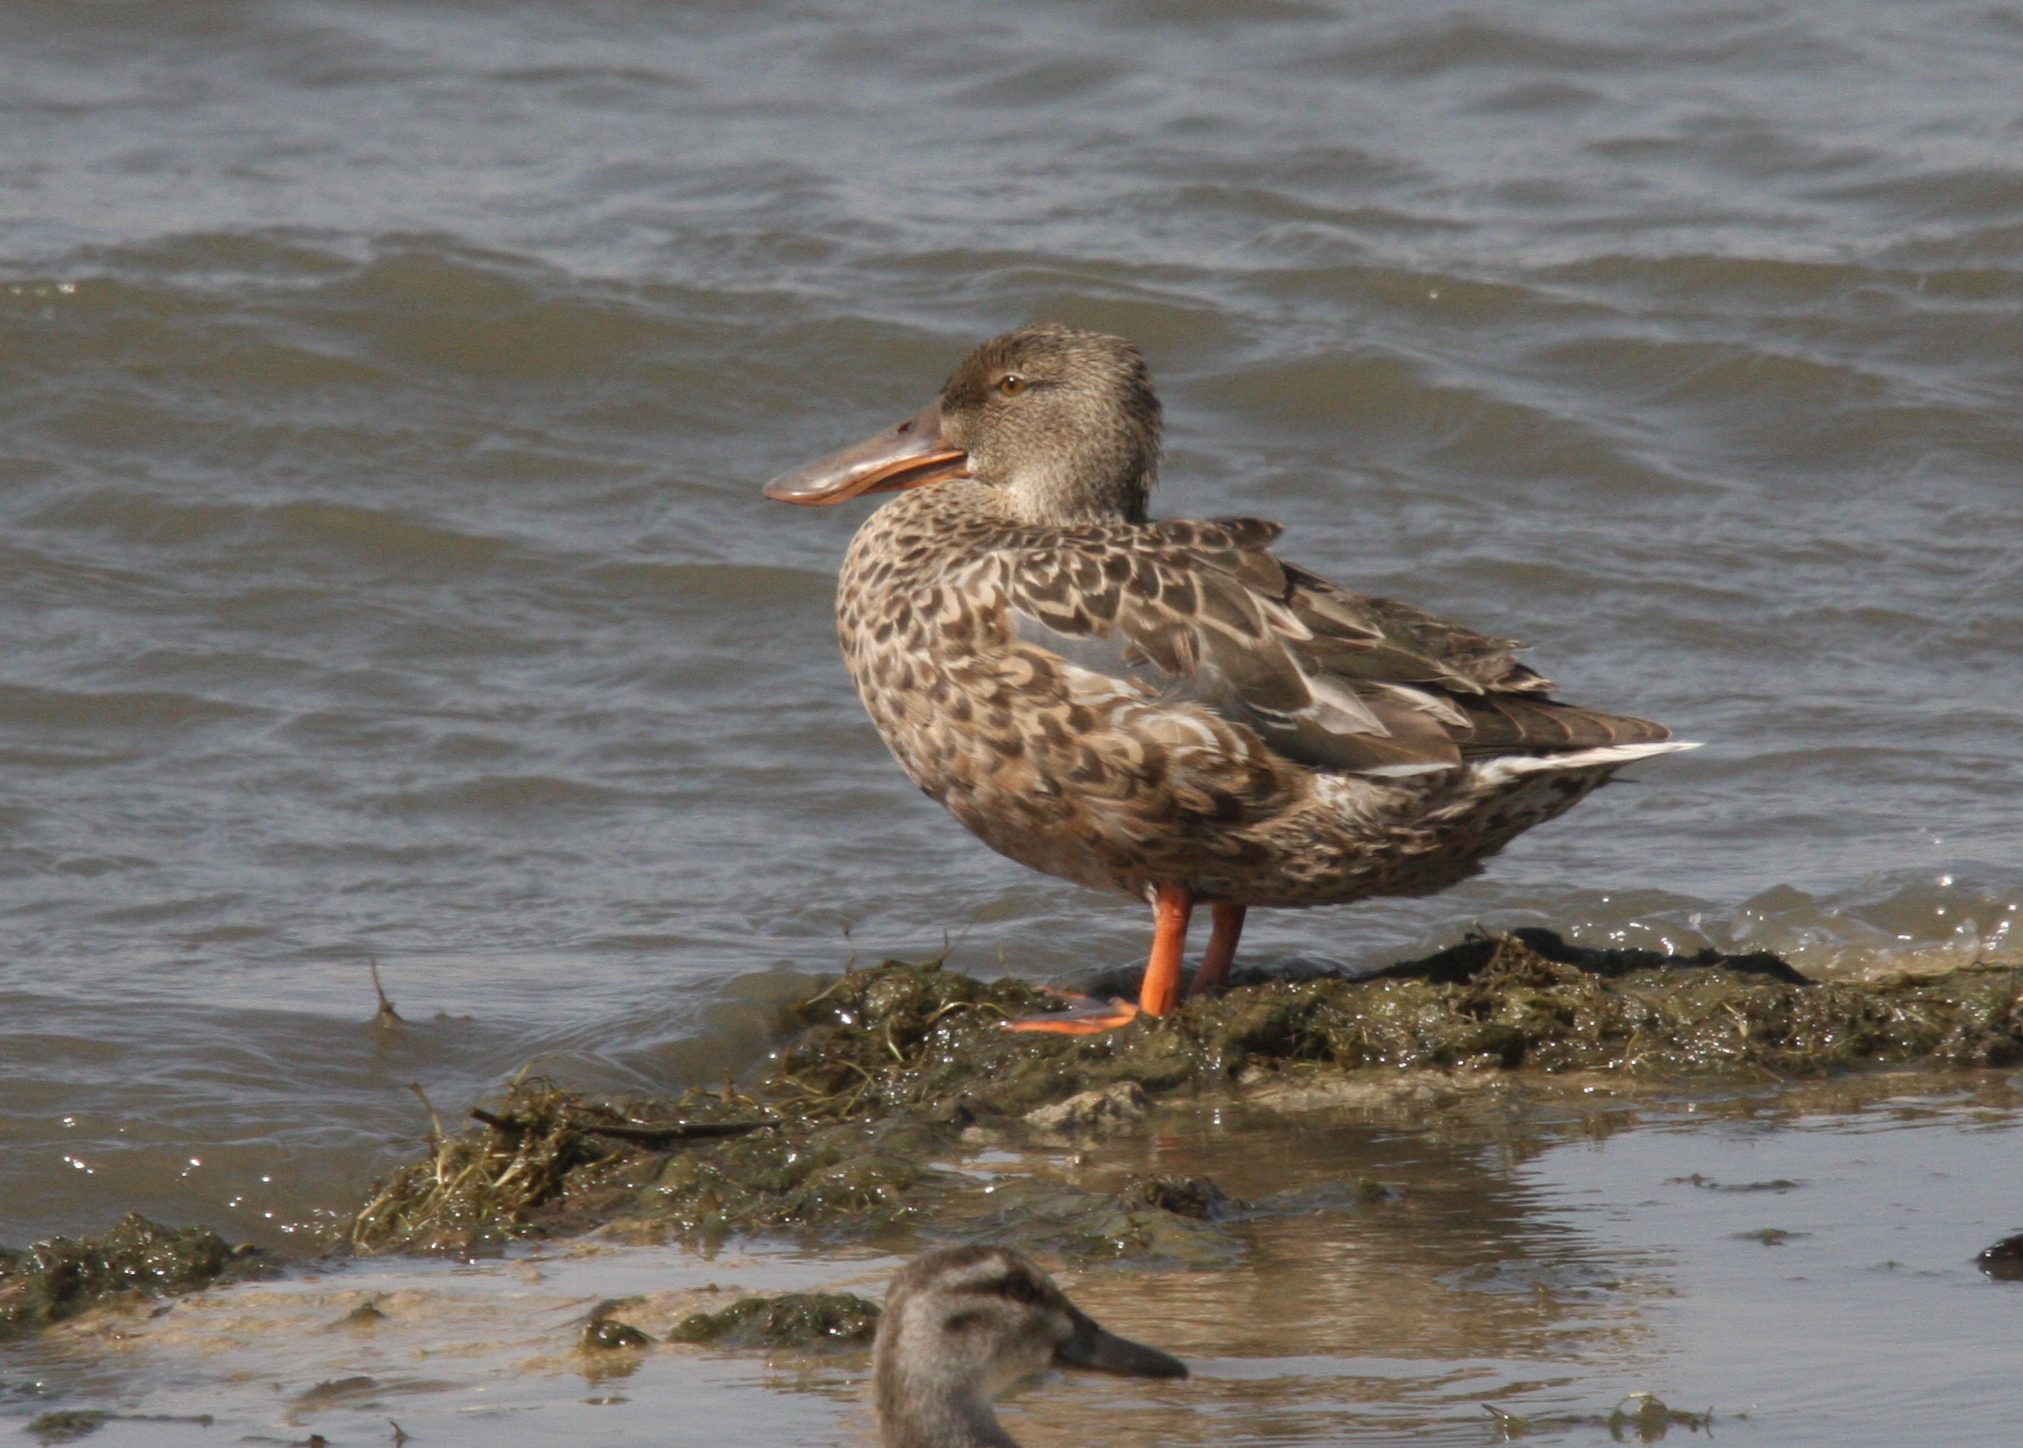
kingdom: Animalia
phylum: Chordata
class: Aves
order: Anseriformes
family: Anatidae
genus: Spatula
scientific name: Spatula clypeata
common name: Northern shoveler
